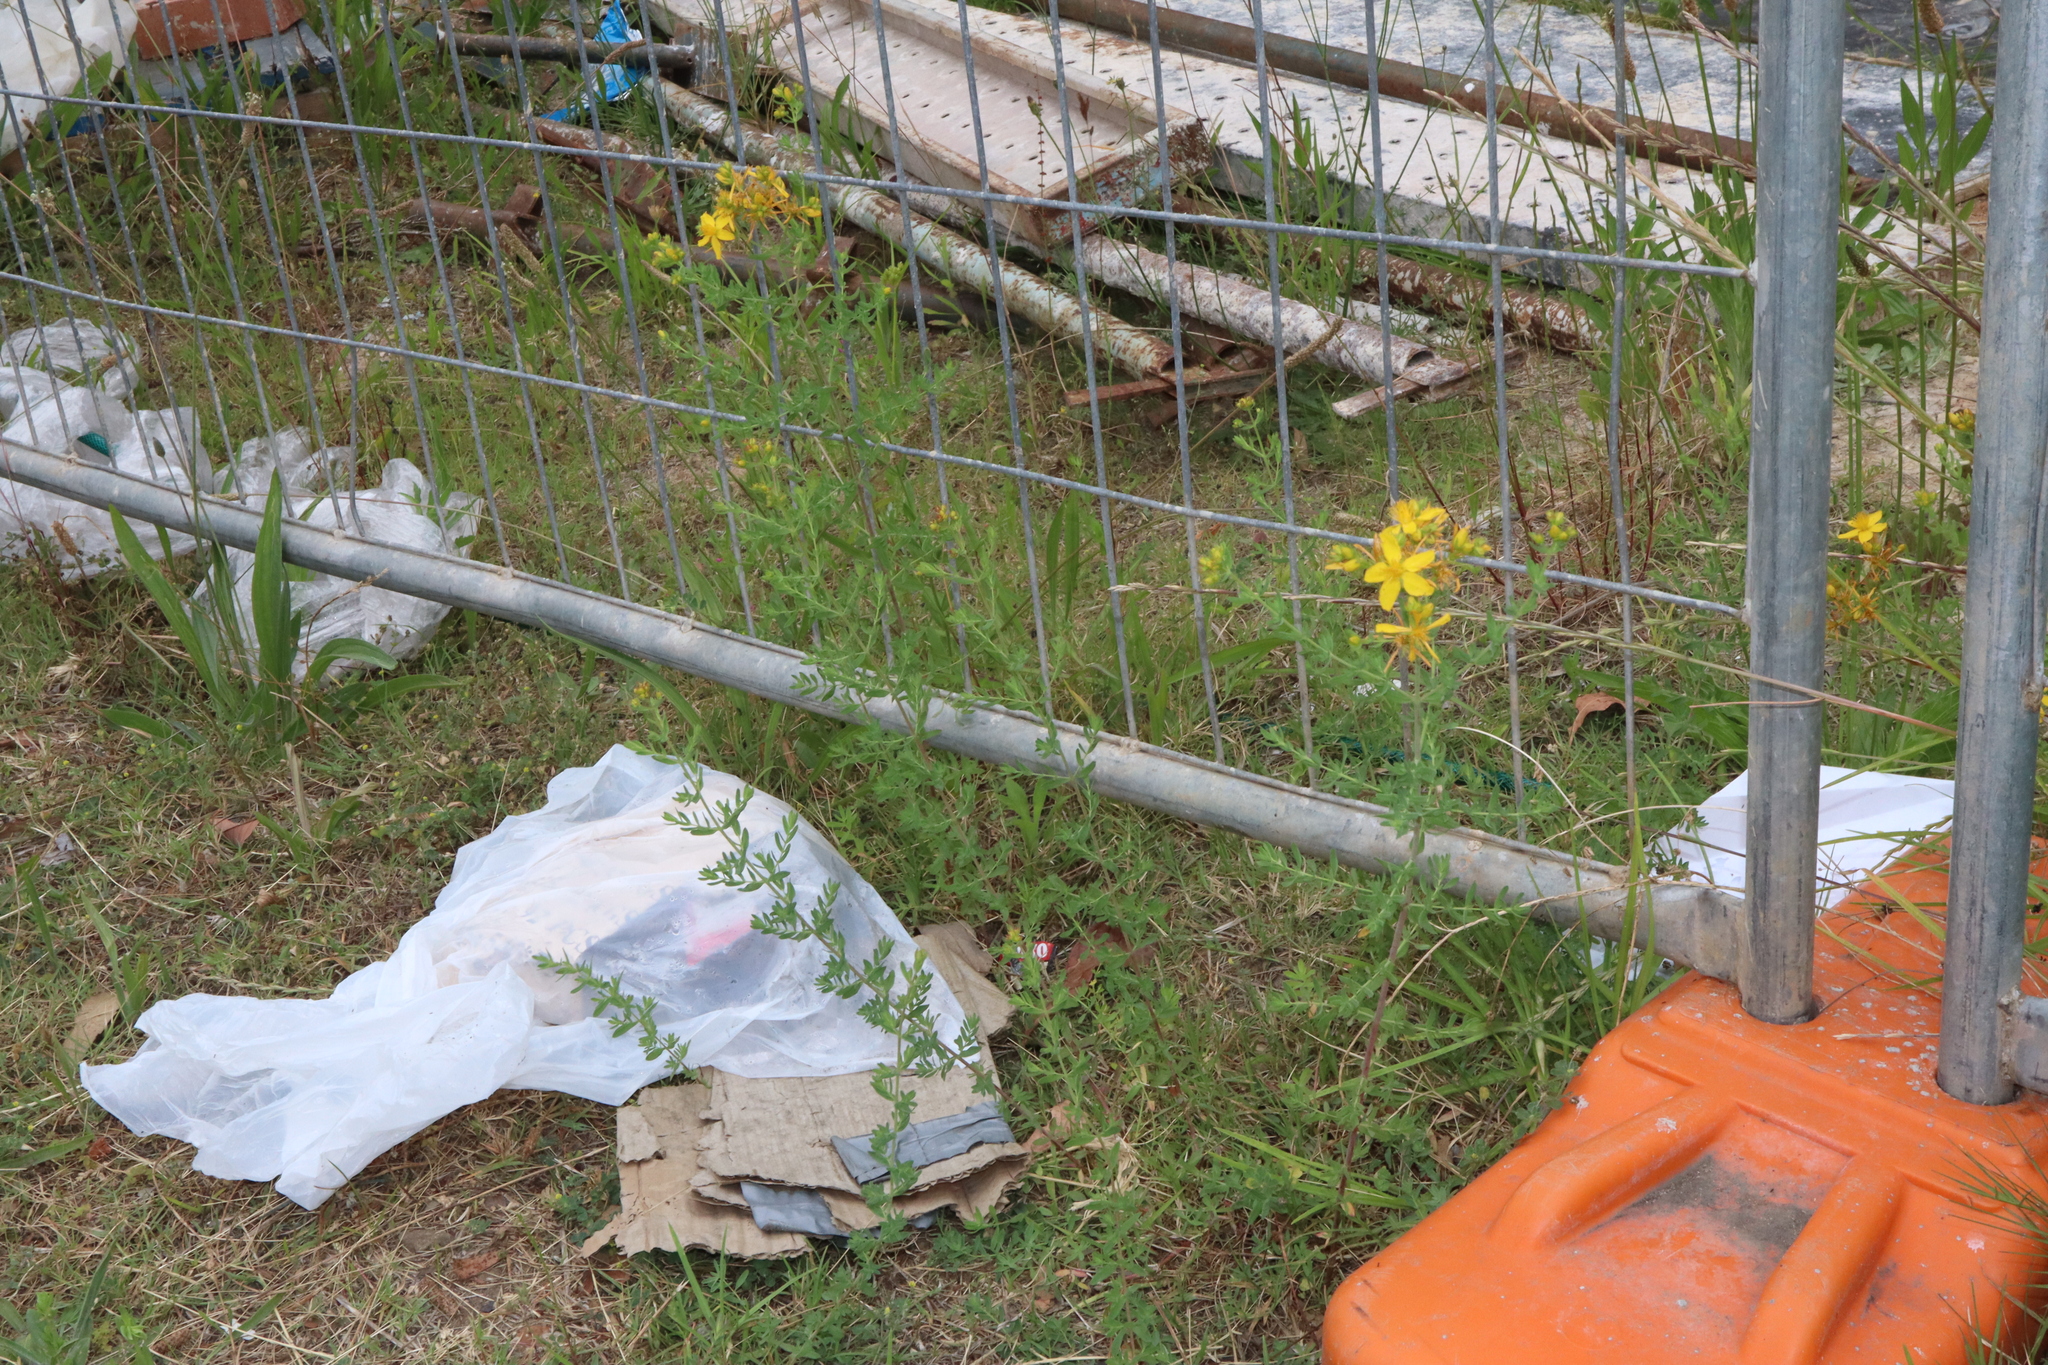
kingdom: Plantae
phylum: Tracheophyta
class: Magnoliopsida
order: Malpighiales
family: Hypericaceae
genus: Hypericum
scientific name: Hypericum perforatum
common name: Common st. johnswort
